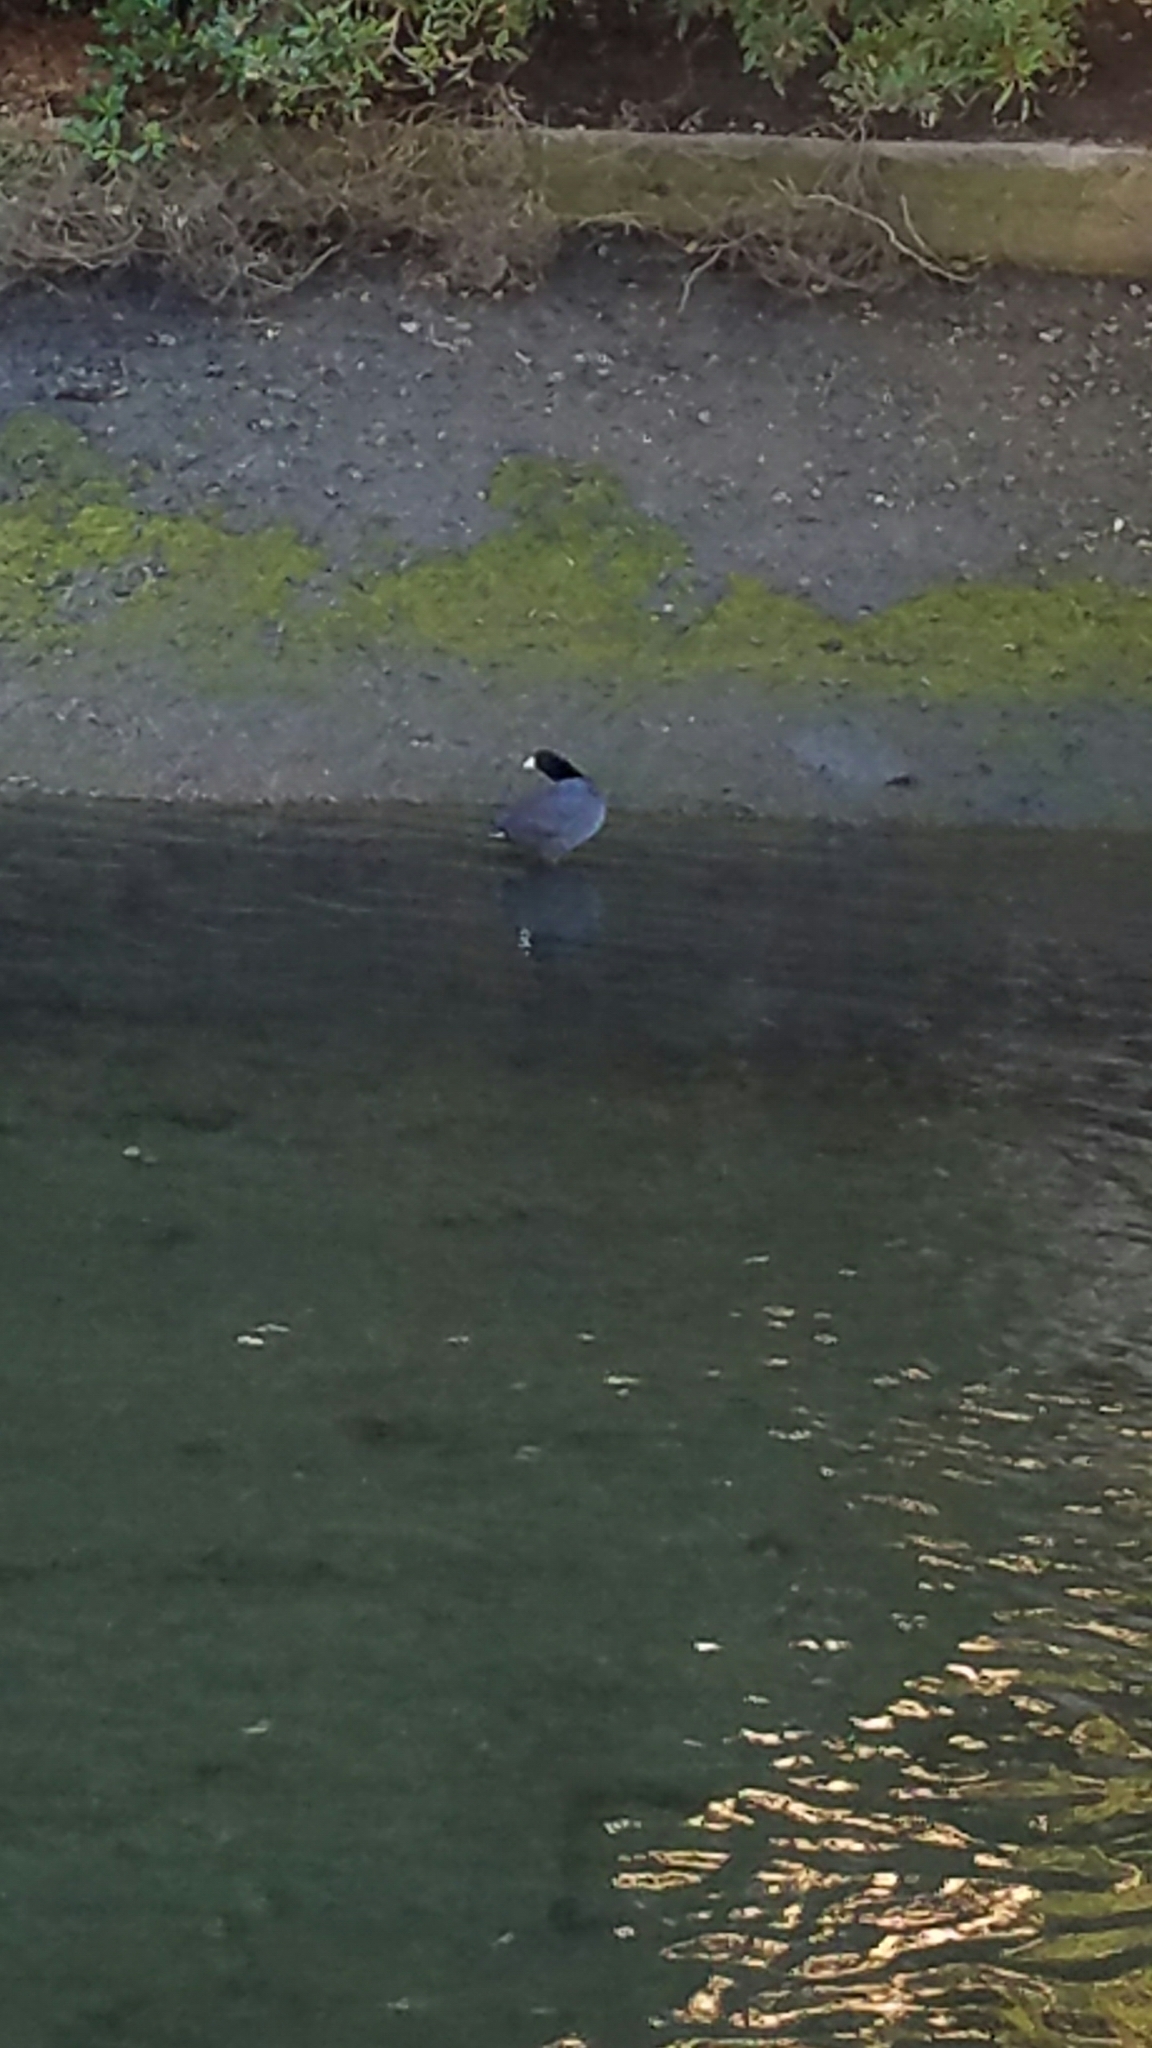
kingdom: Animalia
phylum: Chordata
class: Aves
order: Gruiformes
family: Rallidae
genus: Fulica
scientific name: Fulica americana
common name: American coot
